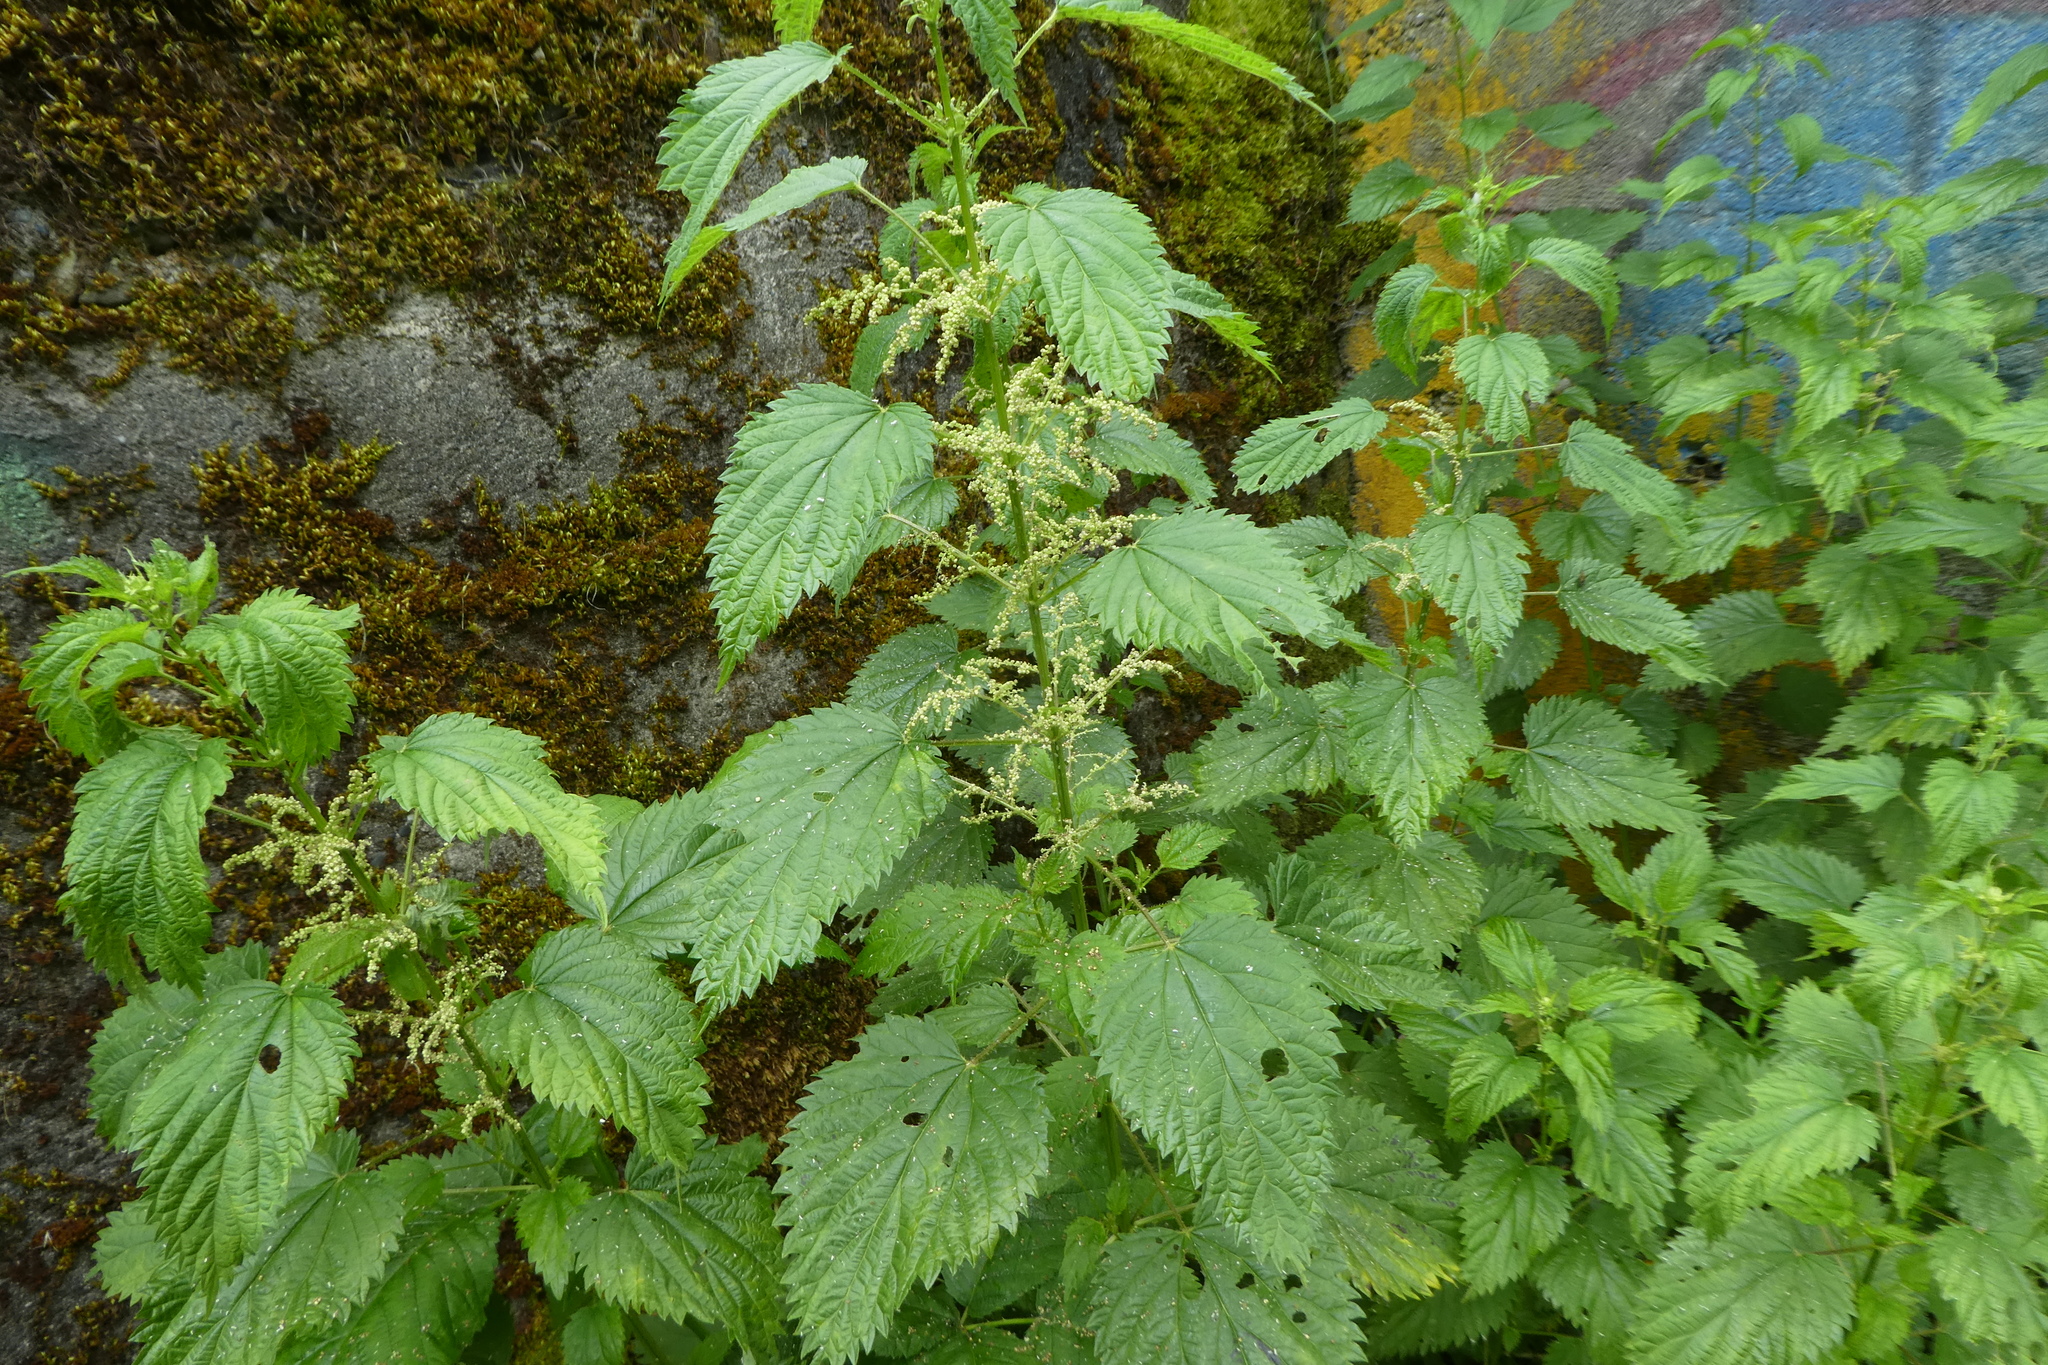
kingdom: Plantae
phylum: Tracheophyta
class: Magnoliopsida
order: Rosales
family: Urticaceae
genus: Urtica
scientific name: Urtica gracilis
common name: Slender stinging nettle
